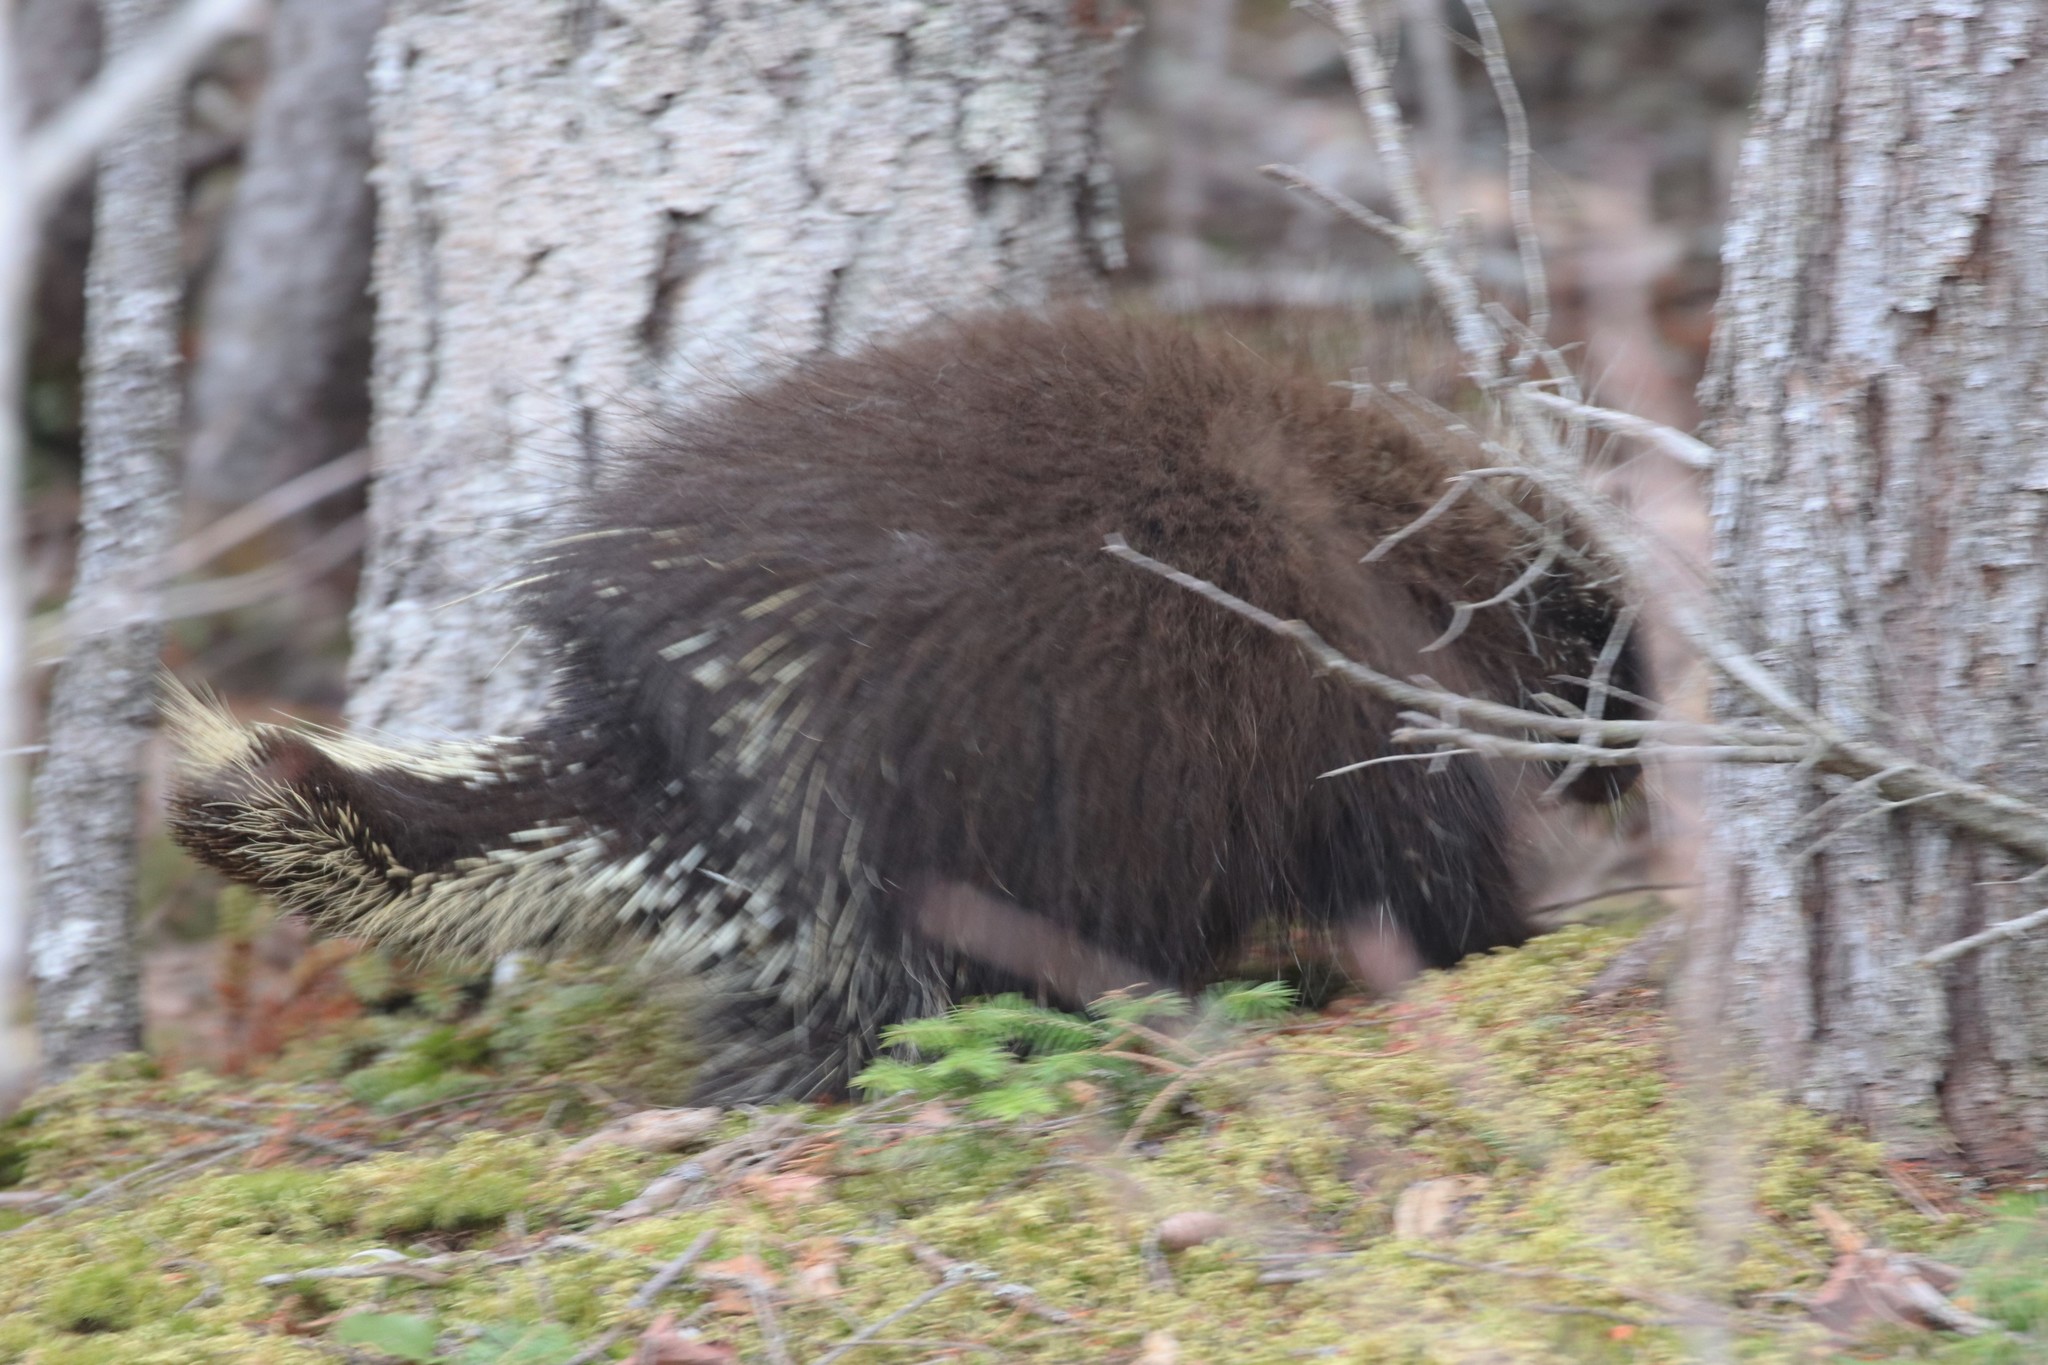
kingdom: Animalia
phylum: Chordata
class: Mammalia
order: Rodentia
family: Erethizontidae
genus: Erethizon
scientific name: Erethizon dorsatus
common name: North american porcupine
